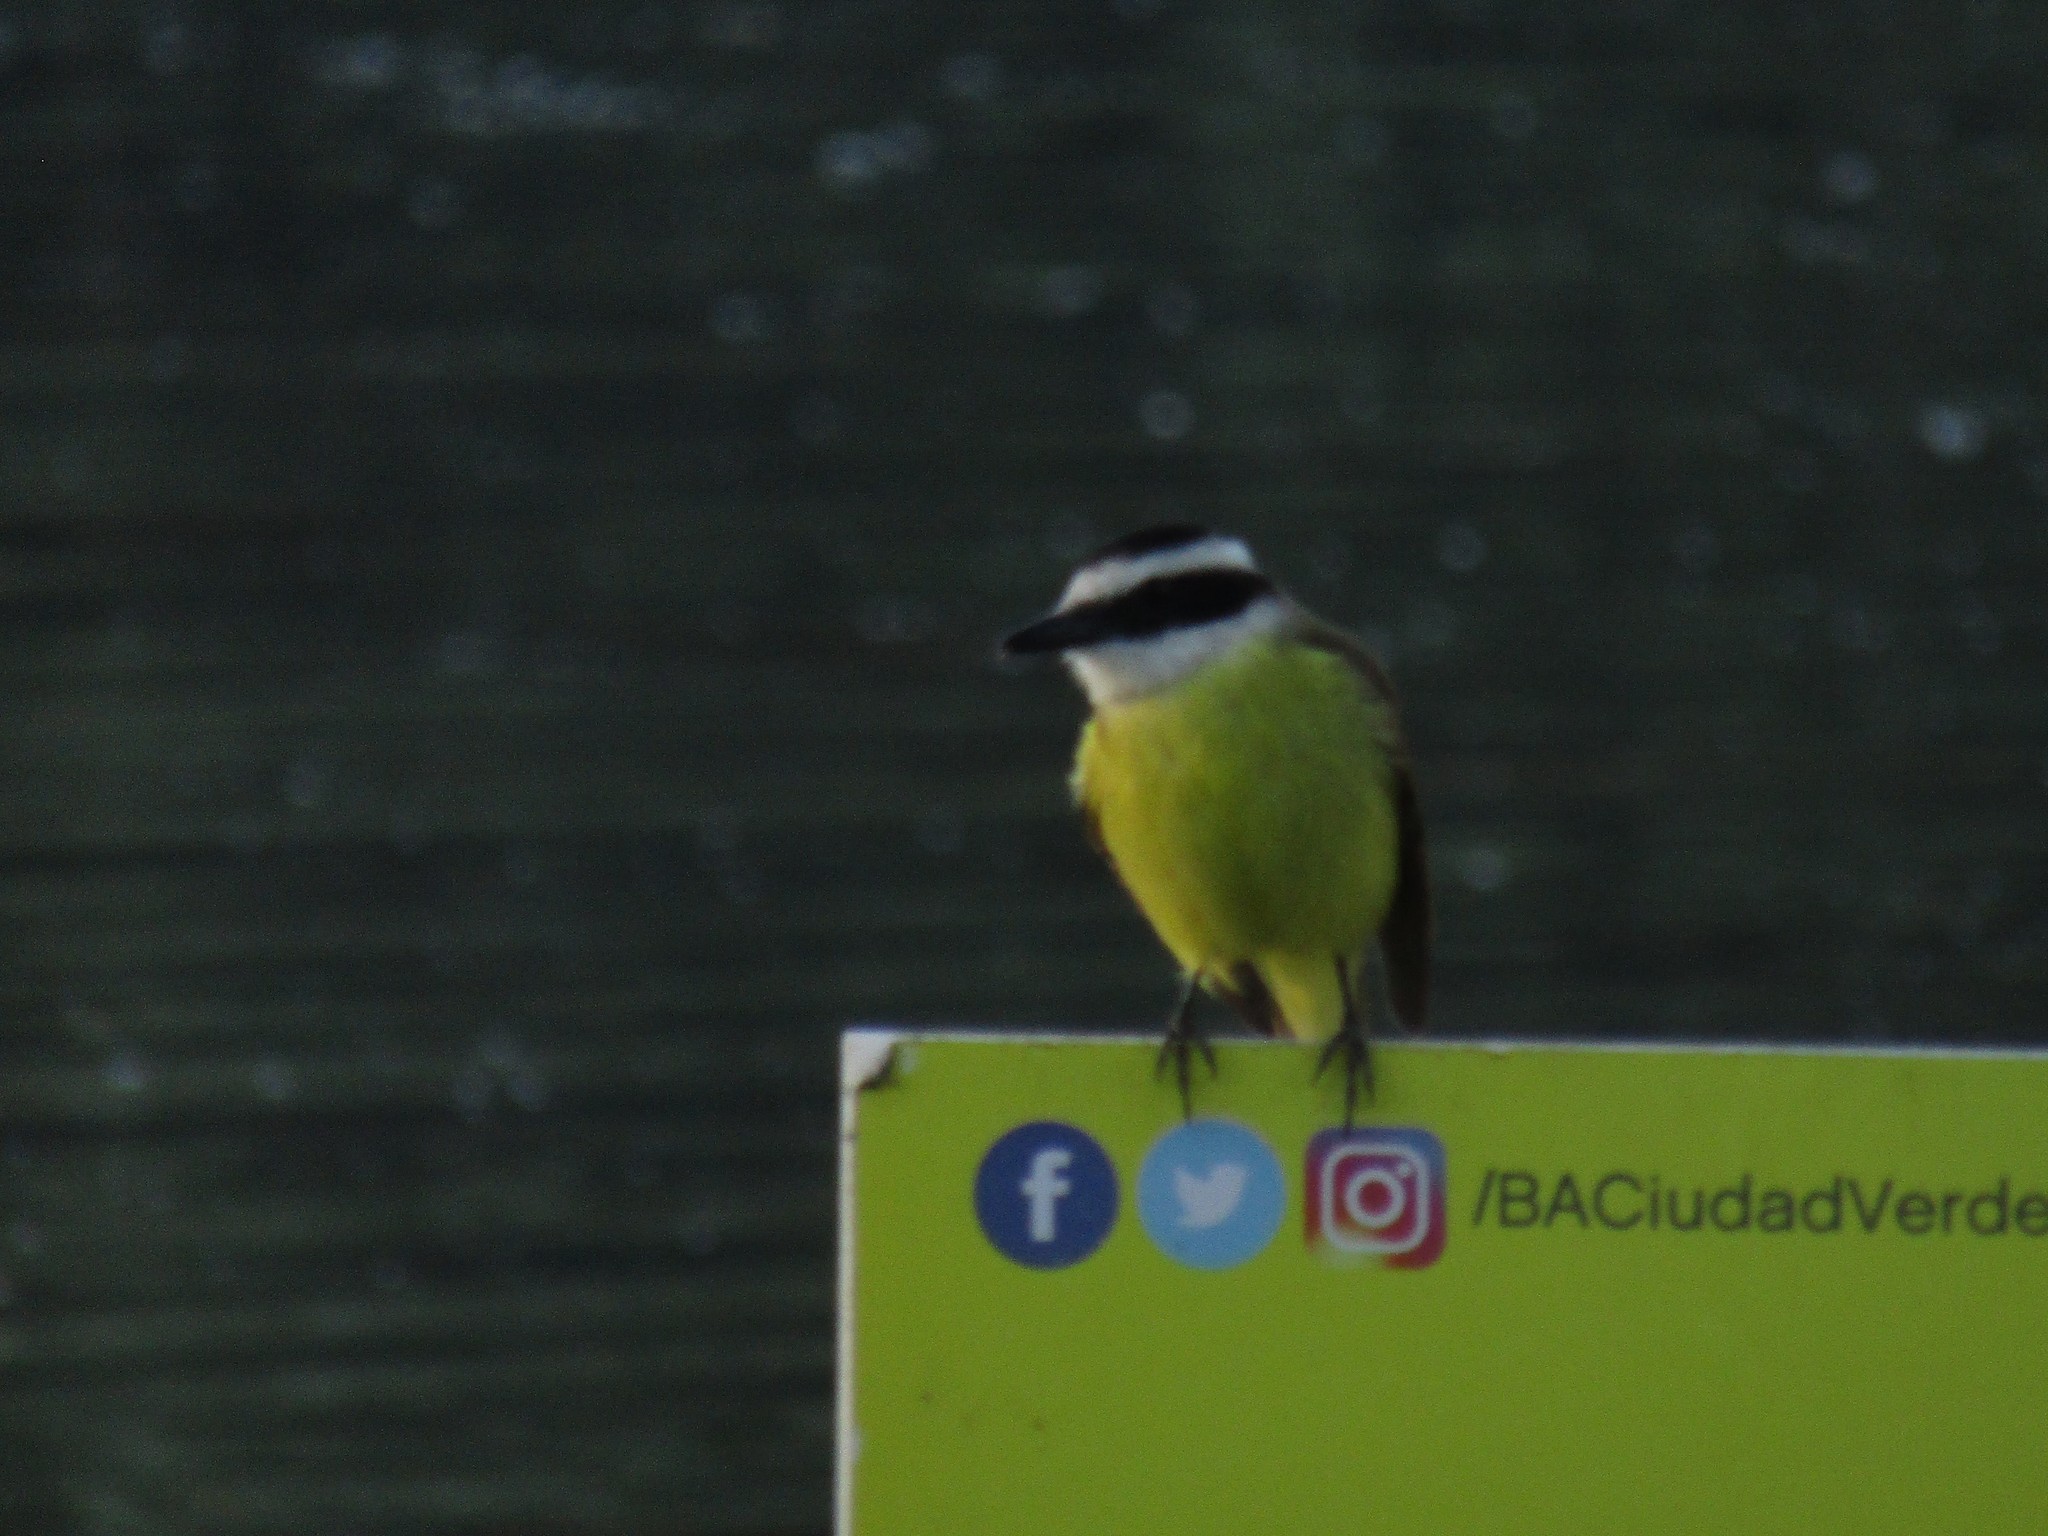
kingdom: Animalia
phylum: Chordata
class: Aves
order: Passeriformes
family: Tyrannidae
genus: Pitangus
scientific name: Pitangus sulphuratus
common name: Great kiskadee
